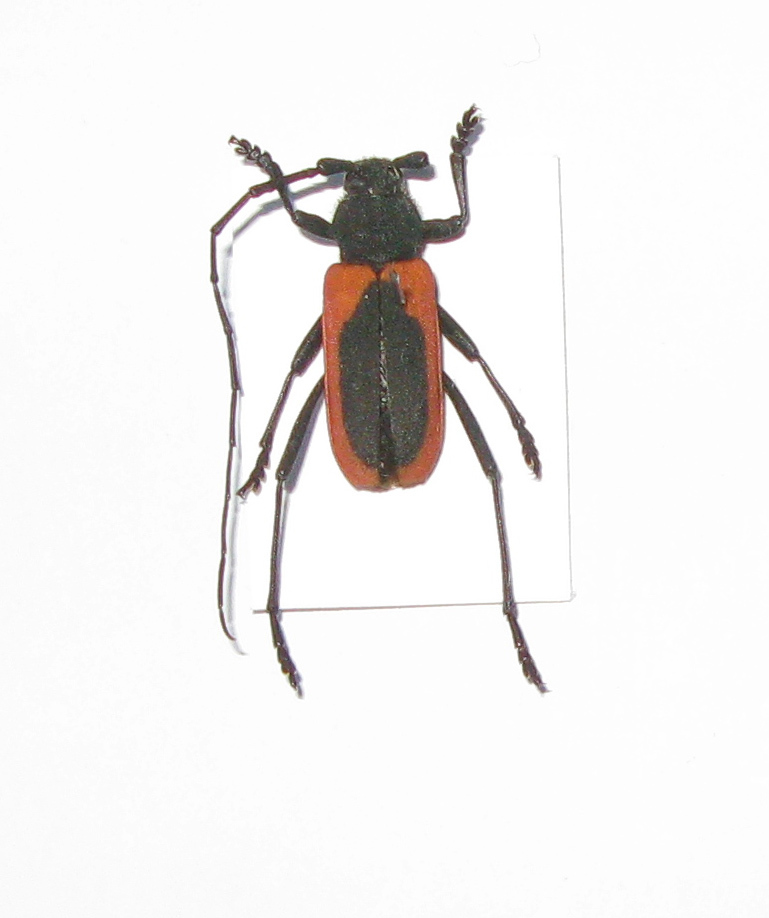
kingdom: Animalia
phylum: Arthropoda
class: Insecta
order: Coleoptera
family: Cerambycidae
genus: Purpuricenus
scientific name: Purpuricenus kaehleri
